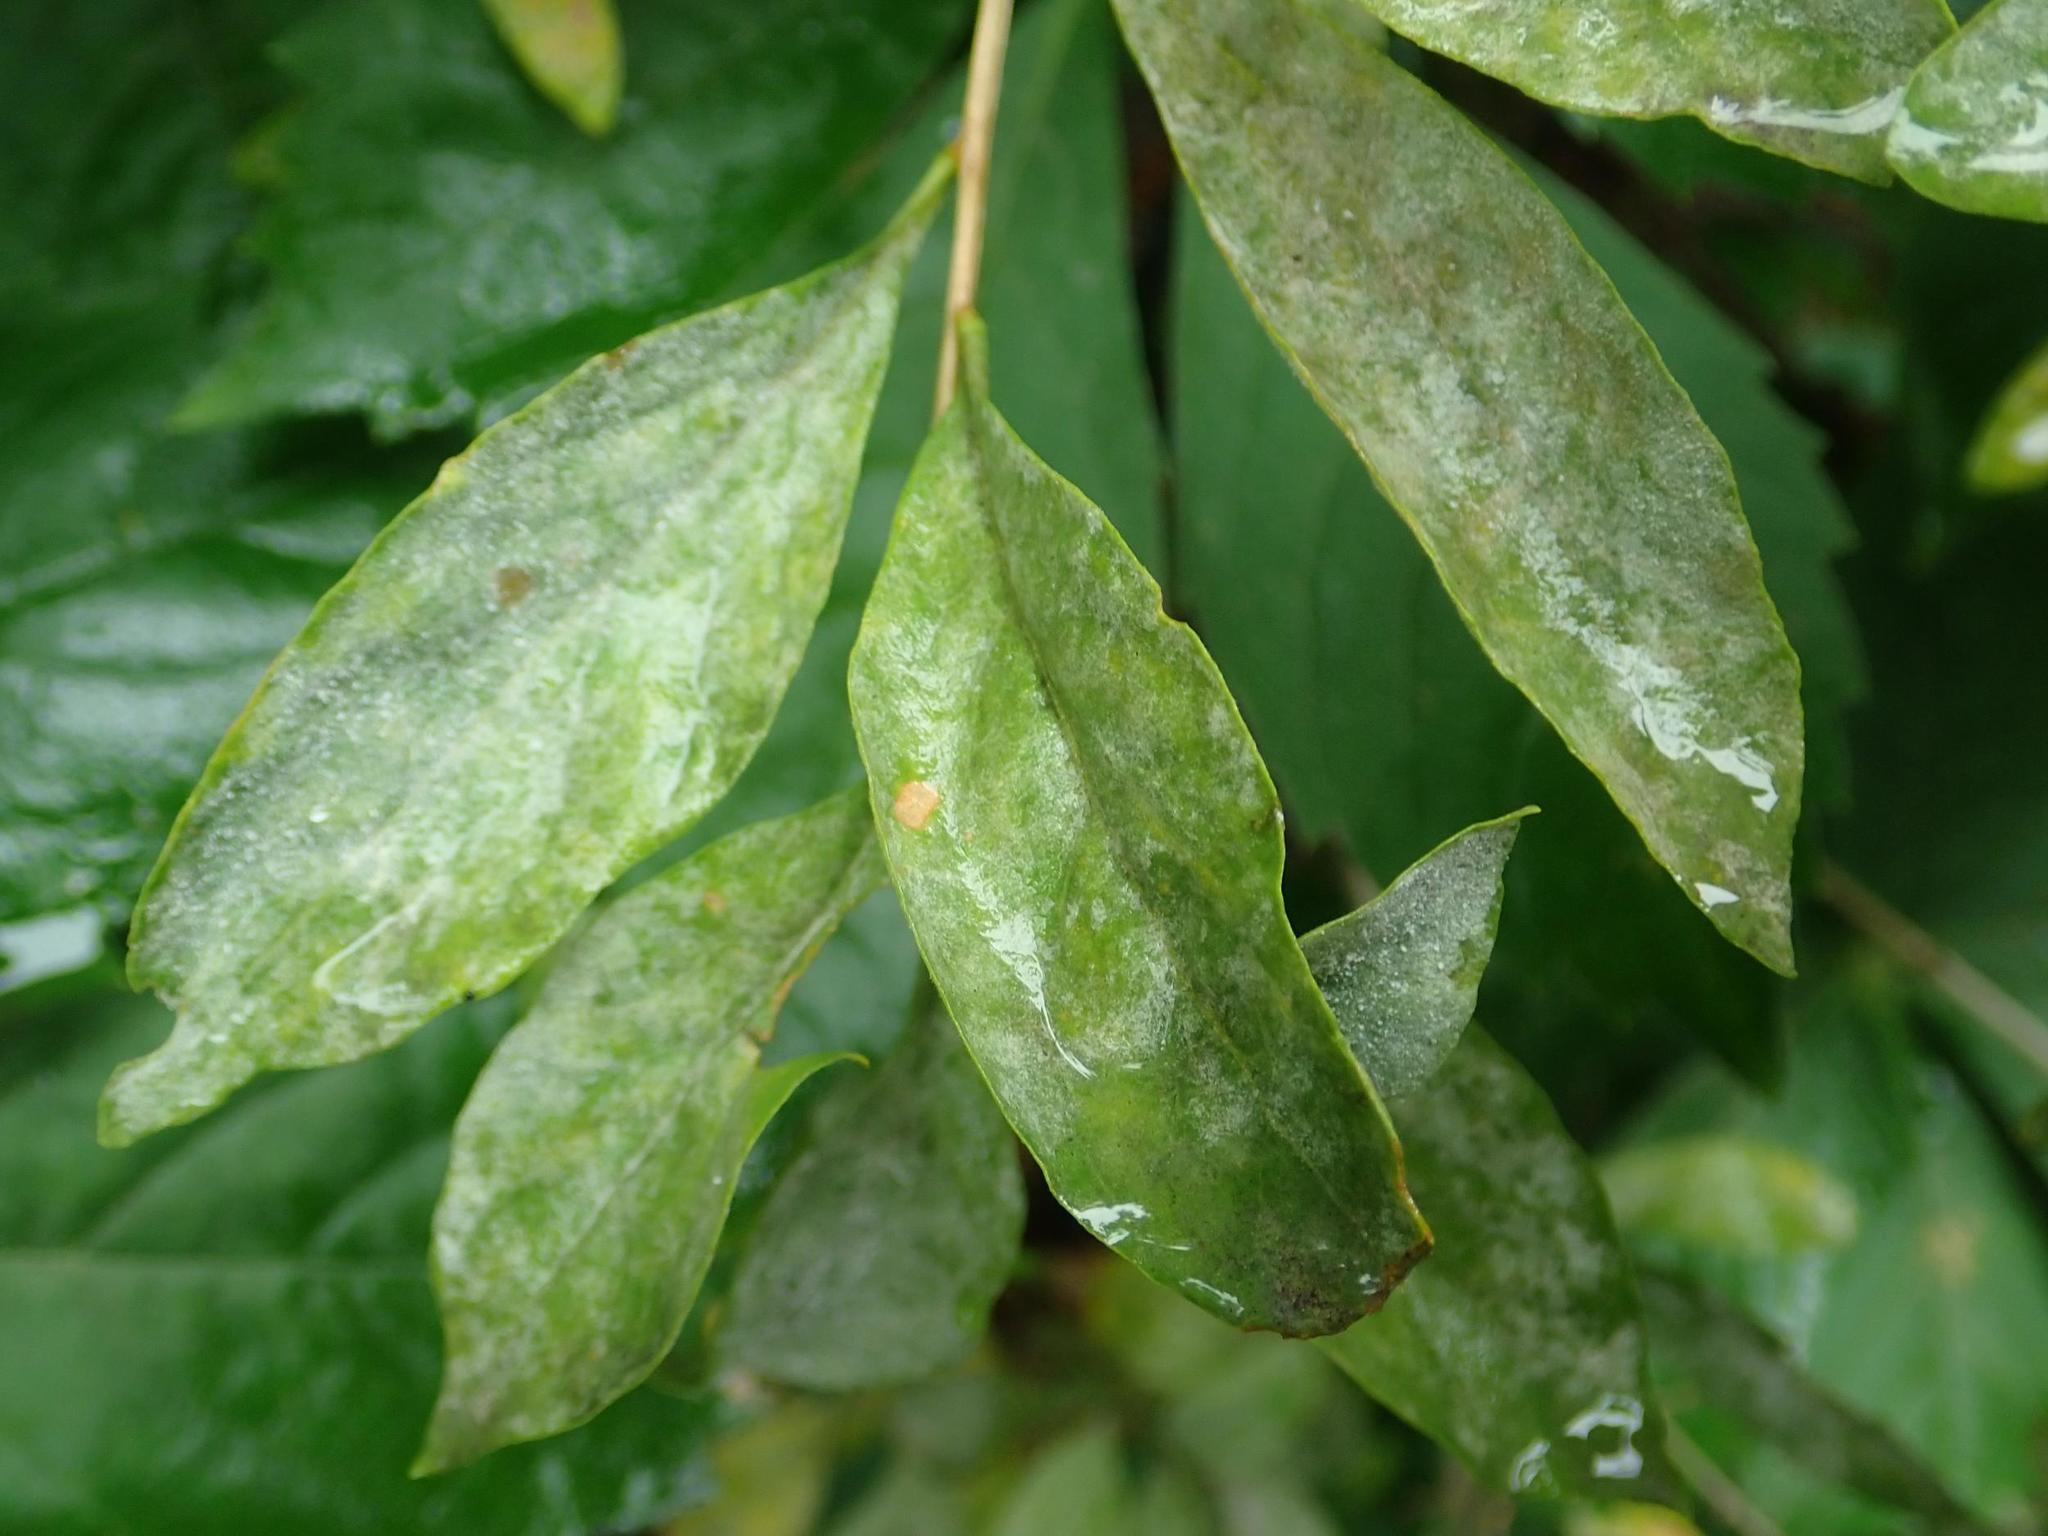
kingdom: Fungi
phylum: Ascomycota
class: Leotiomycetes
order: Helotiales
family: Erysiphaceae
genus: Erysiphe
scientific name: Erysiphe mougeotii
